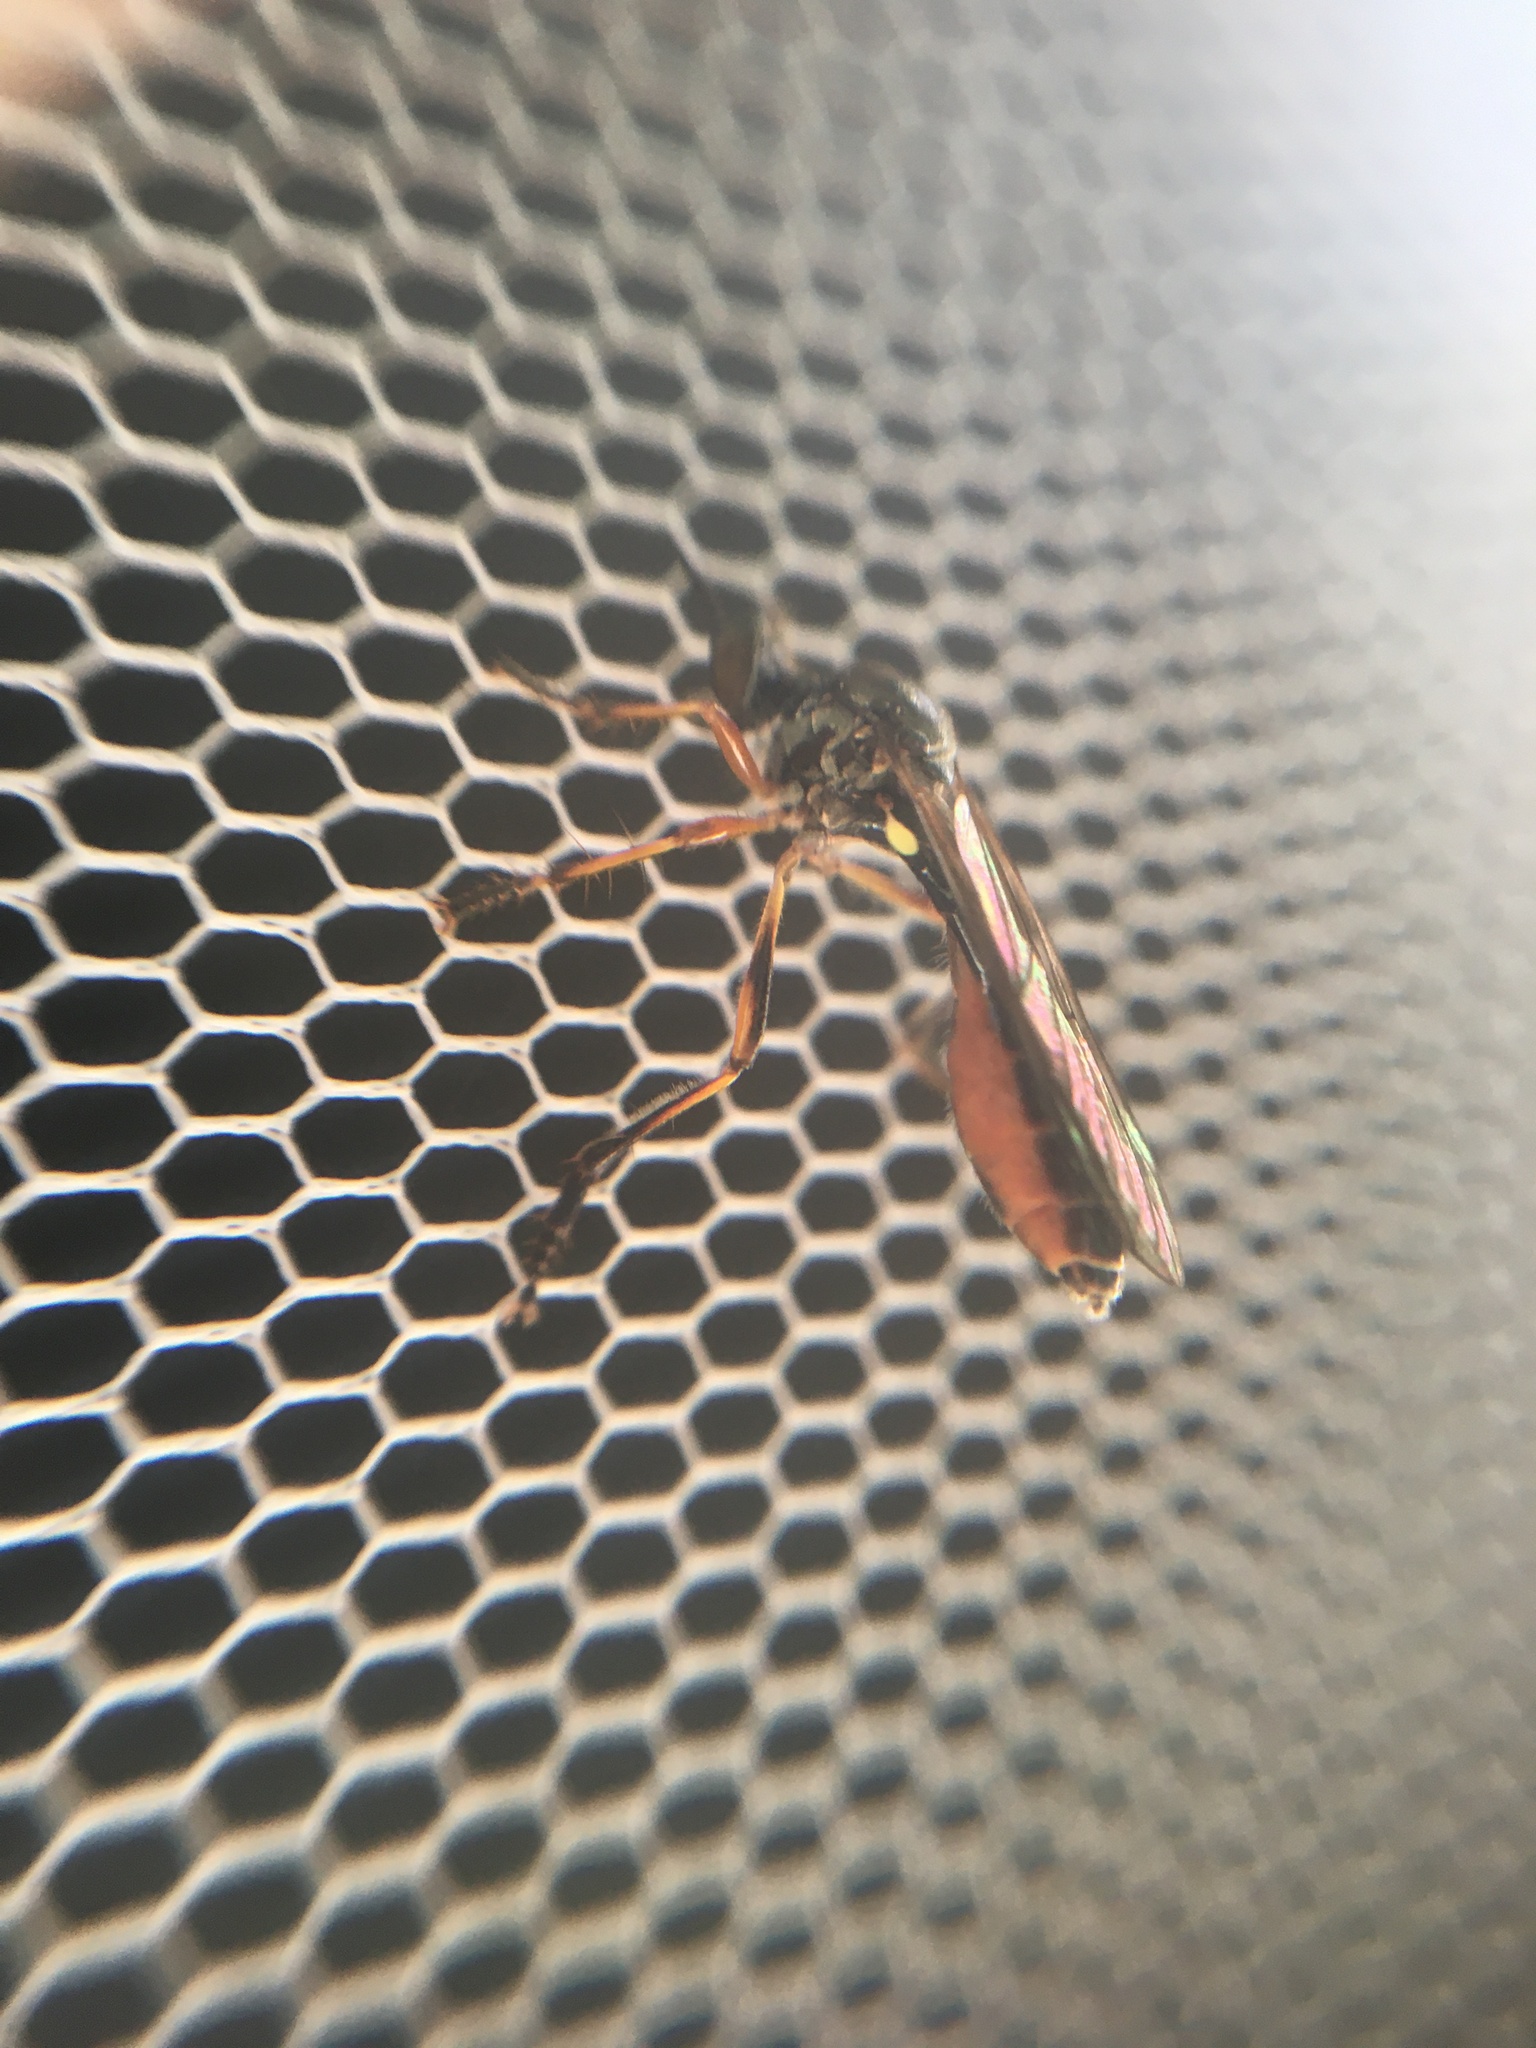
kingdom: Animalia
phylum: Arthropoda
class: Insecta
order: Diptera
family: Asilidae
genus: Dioctria
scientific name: Dioctria hyalipennis
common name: Stripe-legged robberfly
